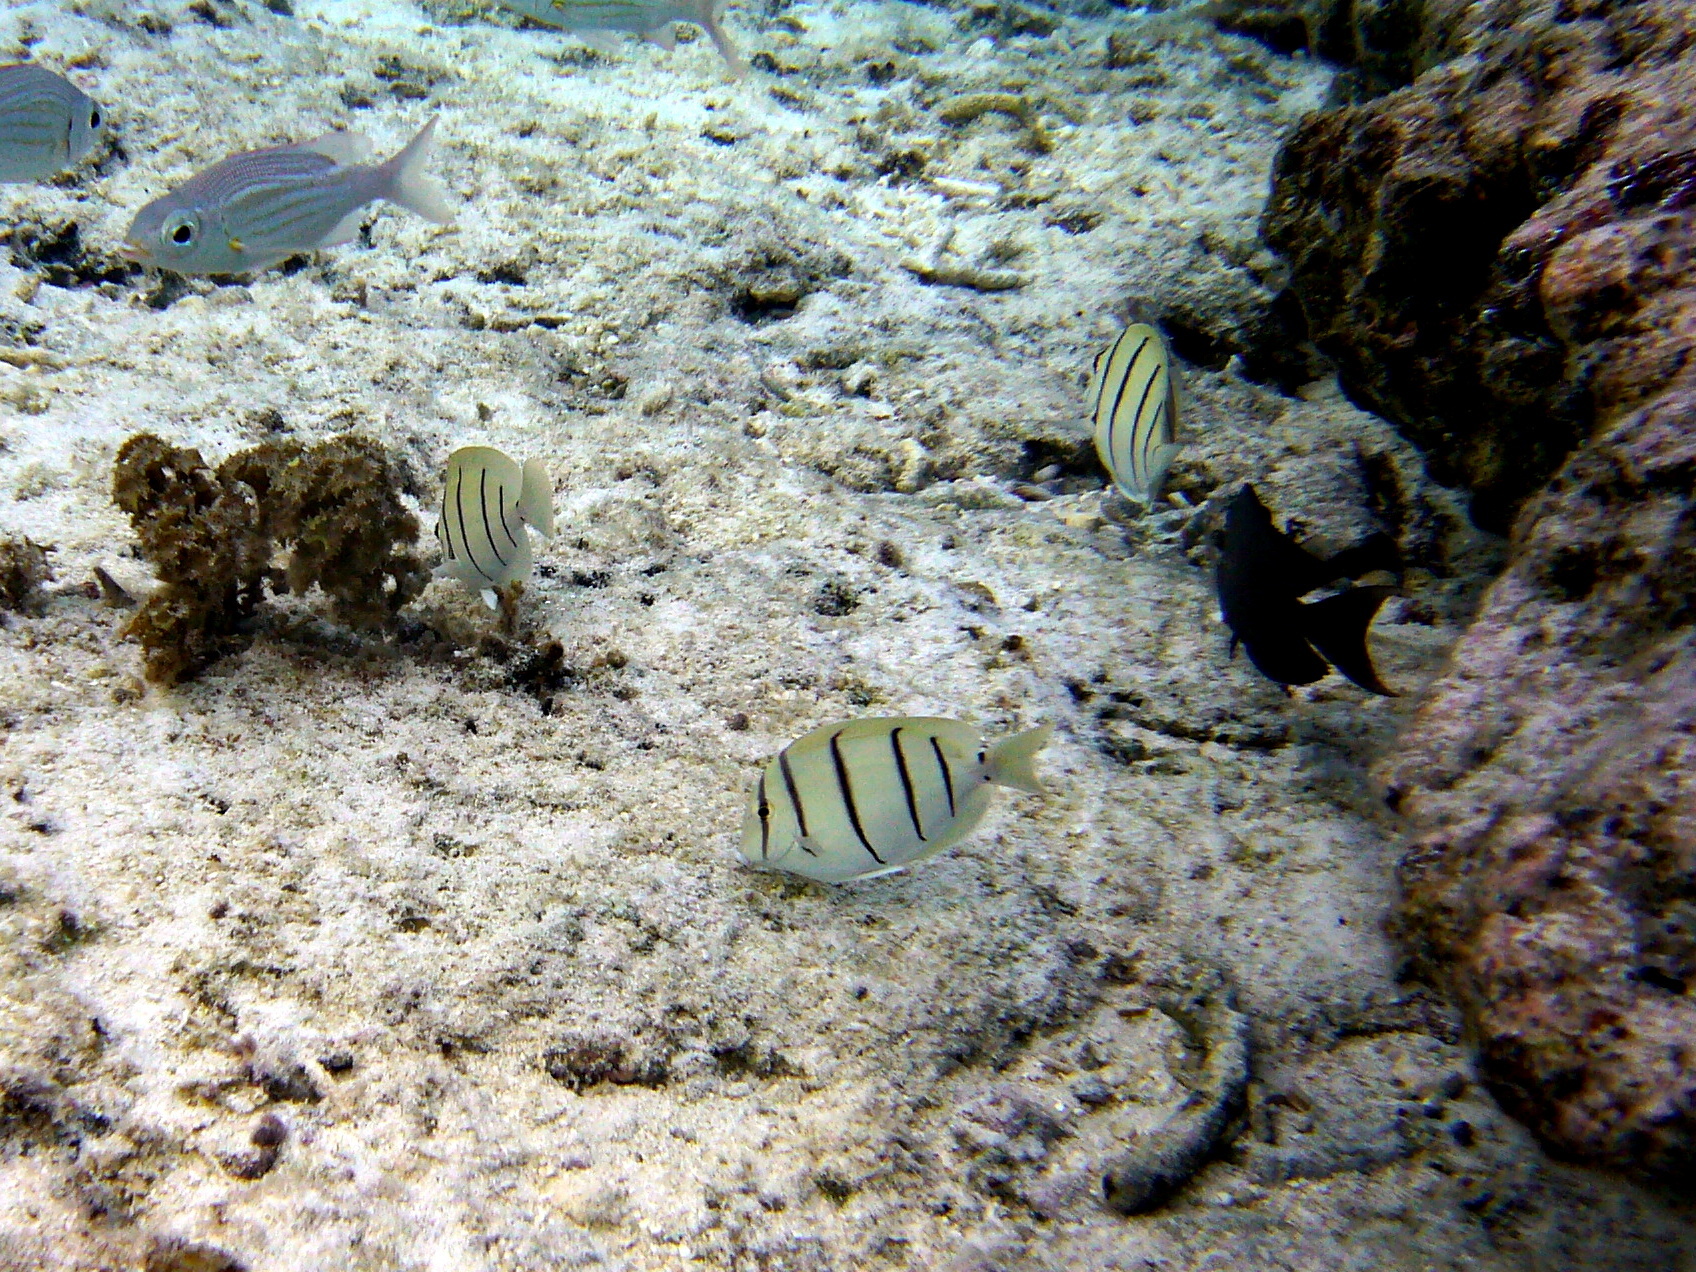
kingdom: Animalia
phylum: Chordata
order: Perciformes
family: Acanthuridae
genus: Acanthurus
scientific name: Acanthurus triostegus
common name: Convict surgeonfish
